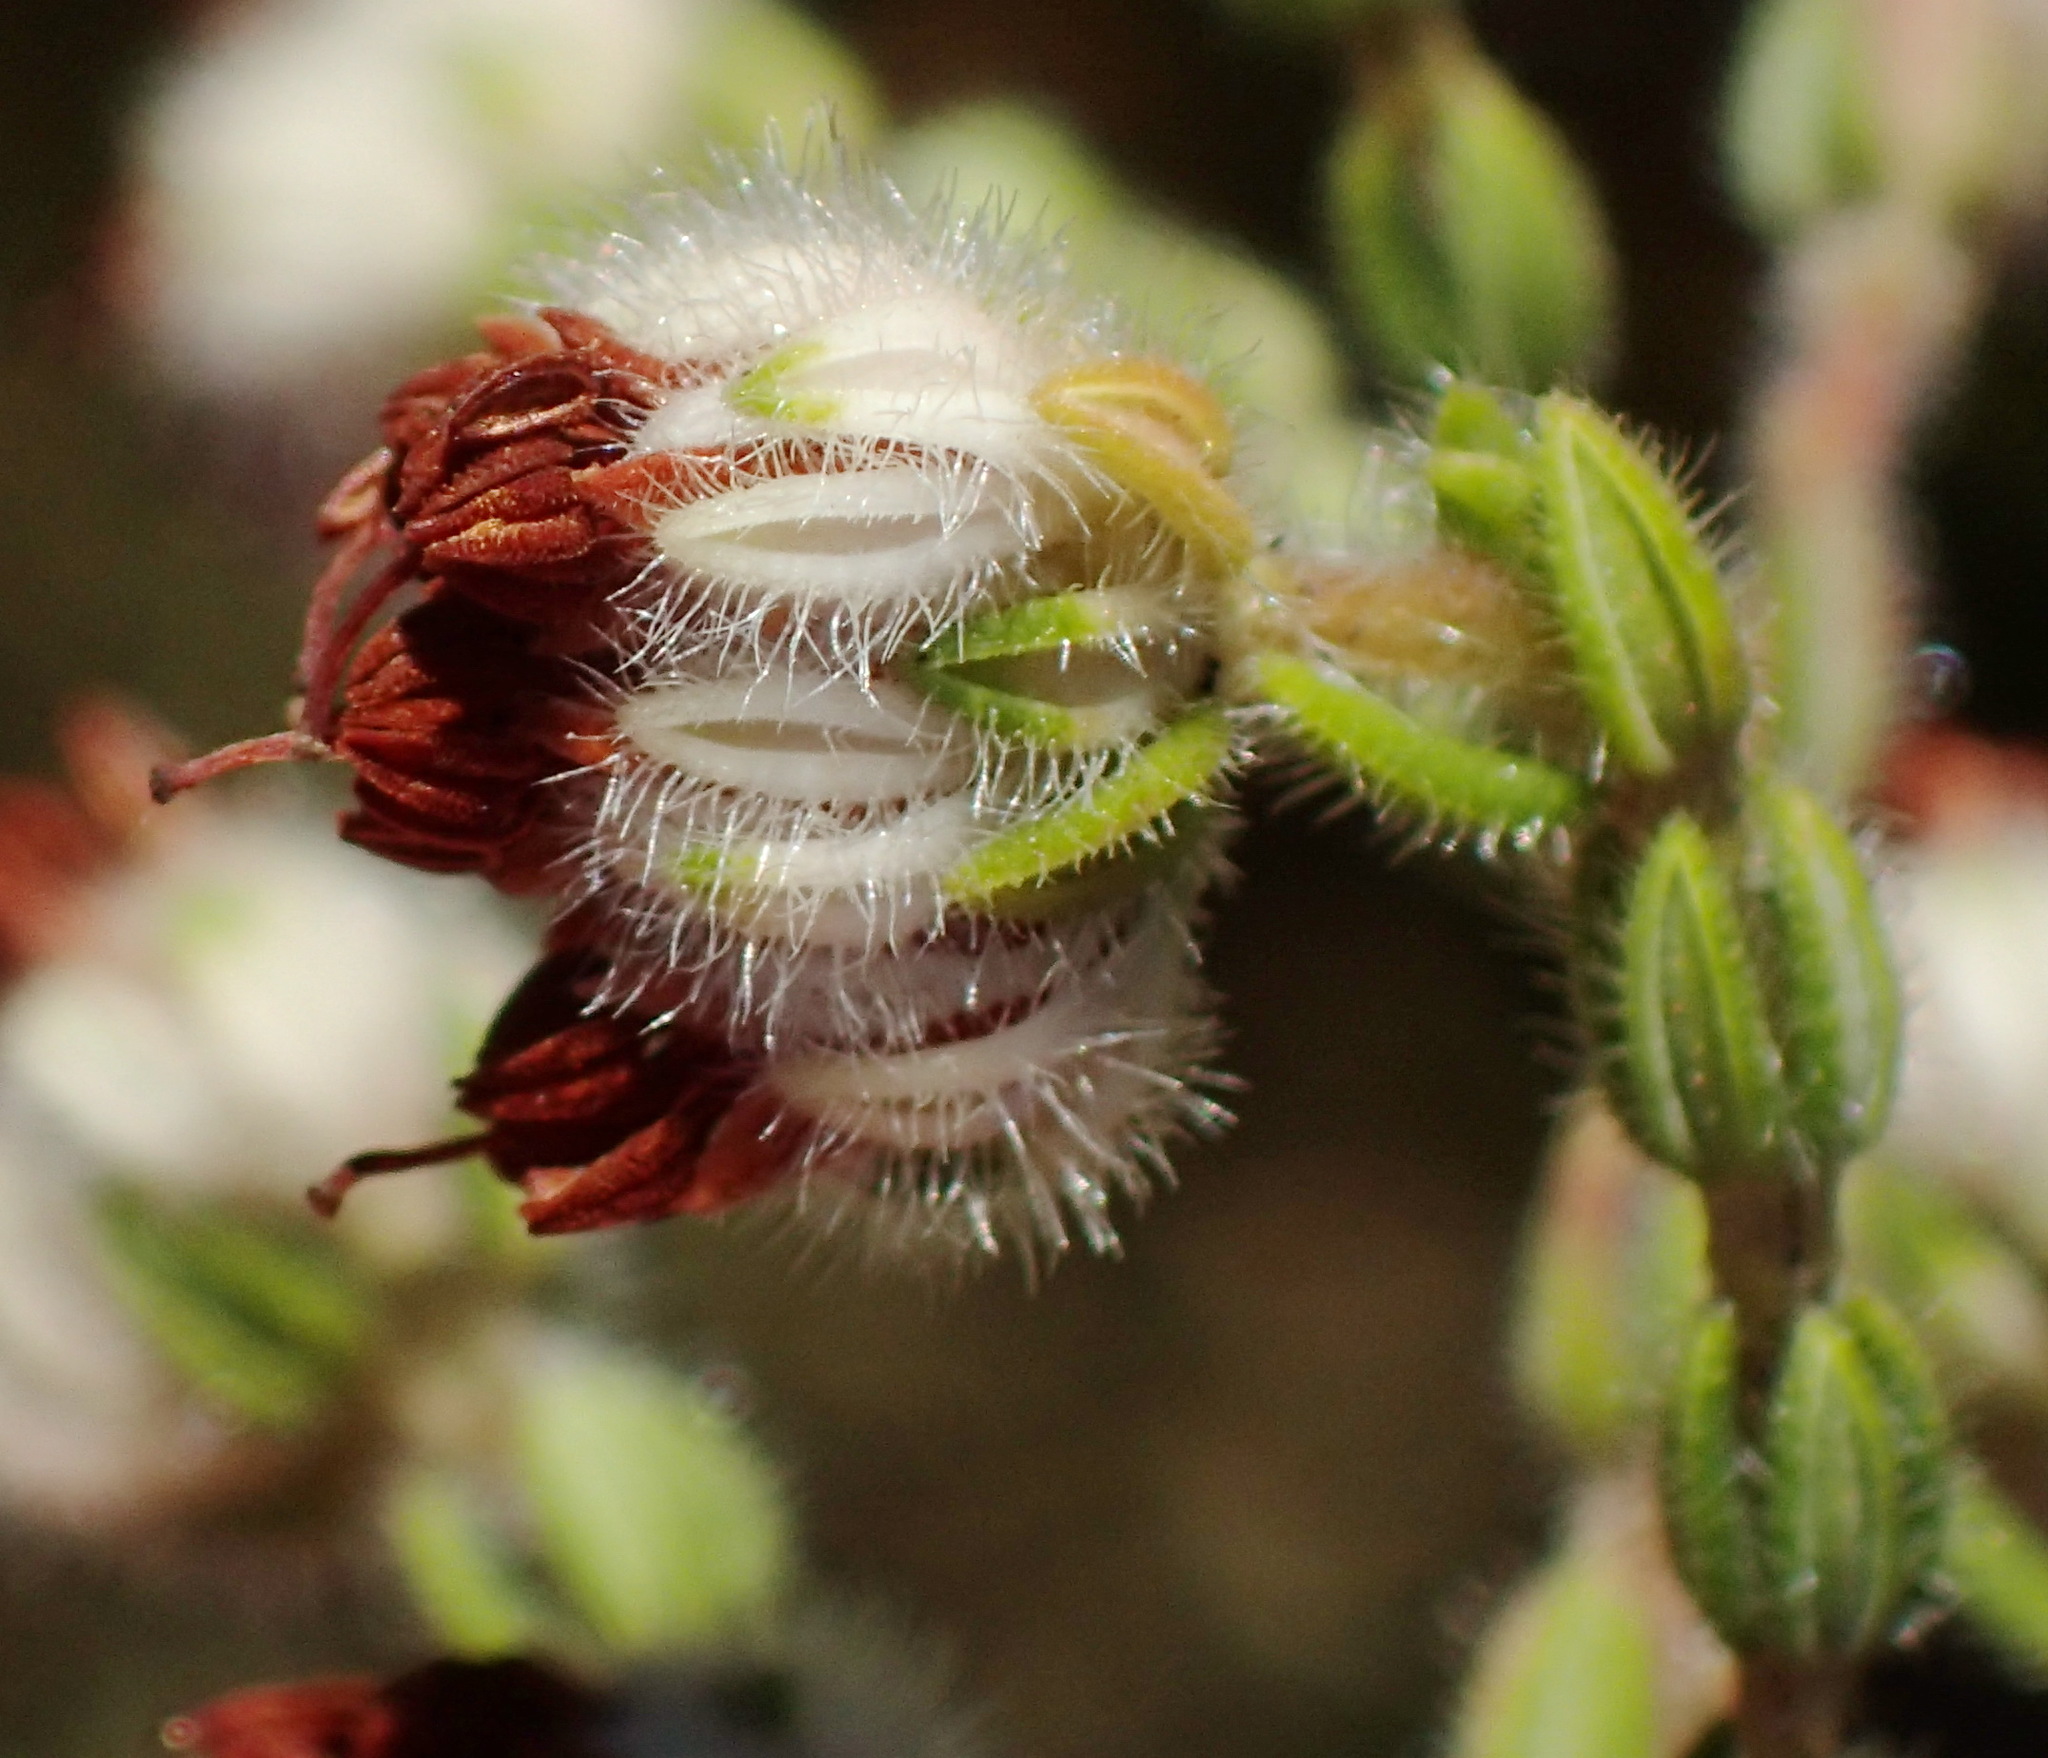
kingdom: Plantae
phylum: Tracheophyta
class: Magnoliopsida
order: Ericales
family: Ericaceae
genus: Erica
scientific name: Erica flaccida
